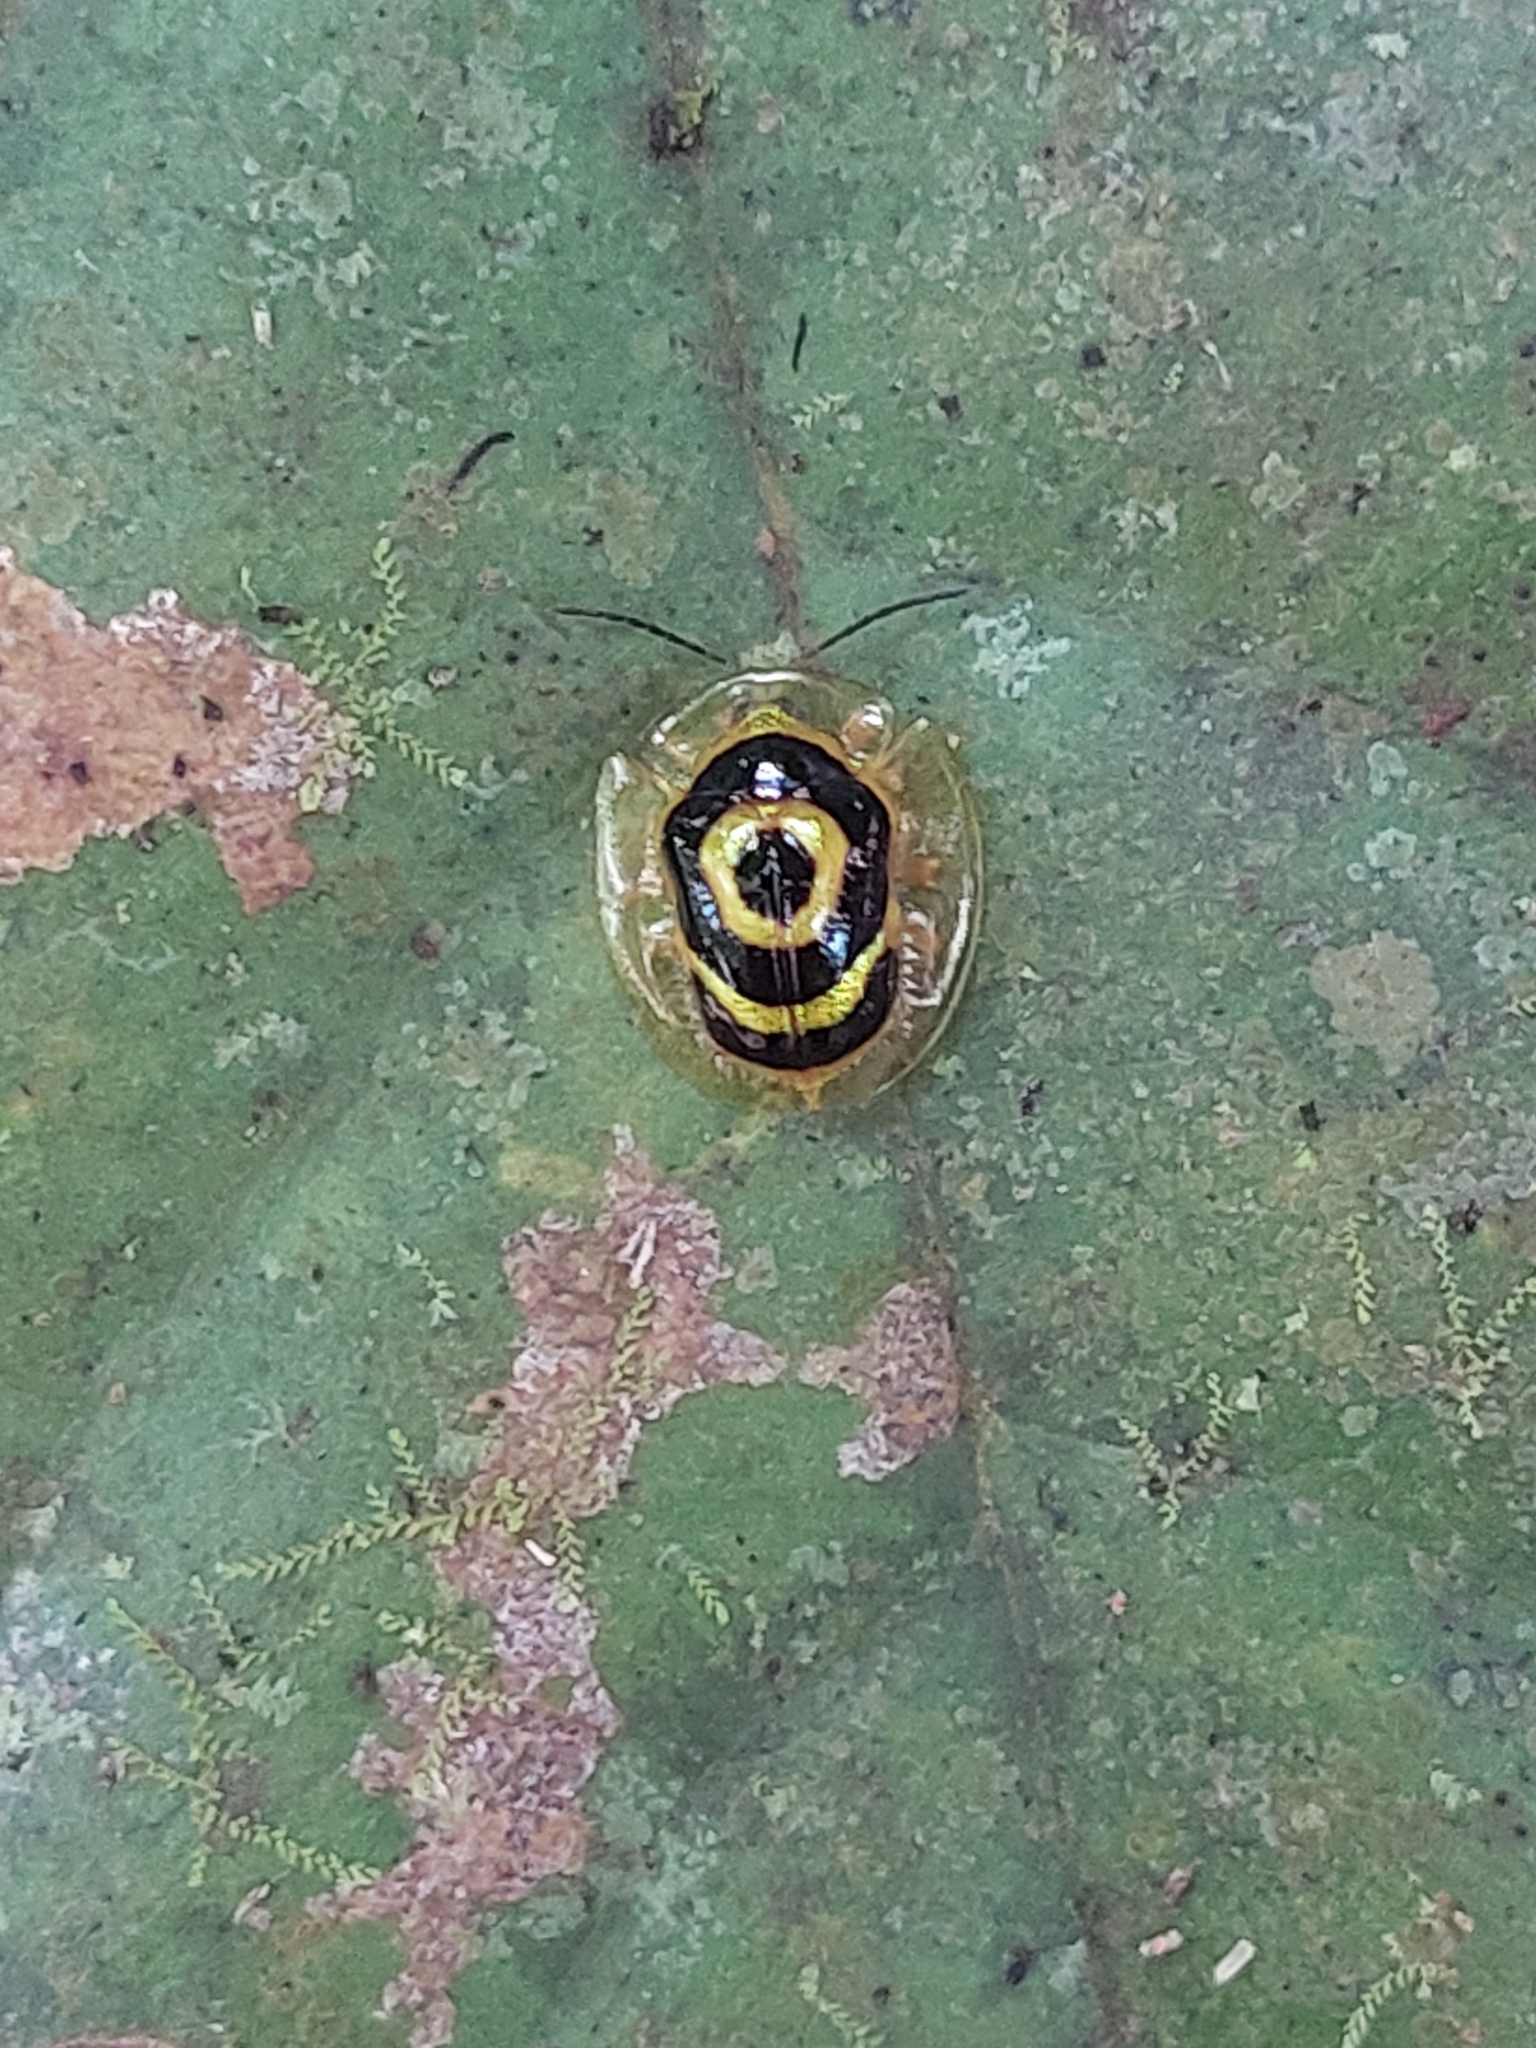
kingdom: Animalia
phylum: Arthropoda
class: Insecta
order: Coleoptera
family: Chrysomelidae
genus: Ischnocodia
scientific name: Ischnocodia annulus
